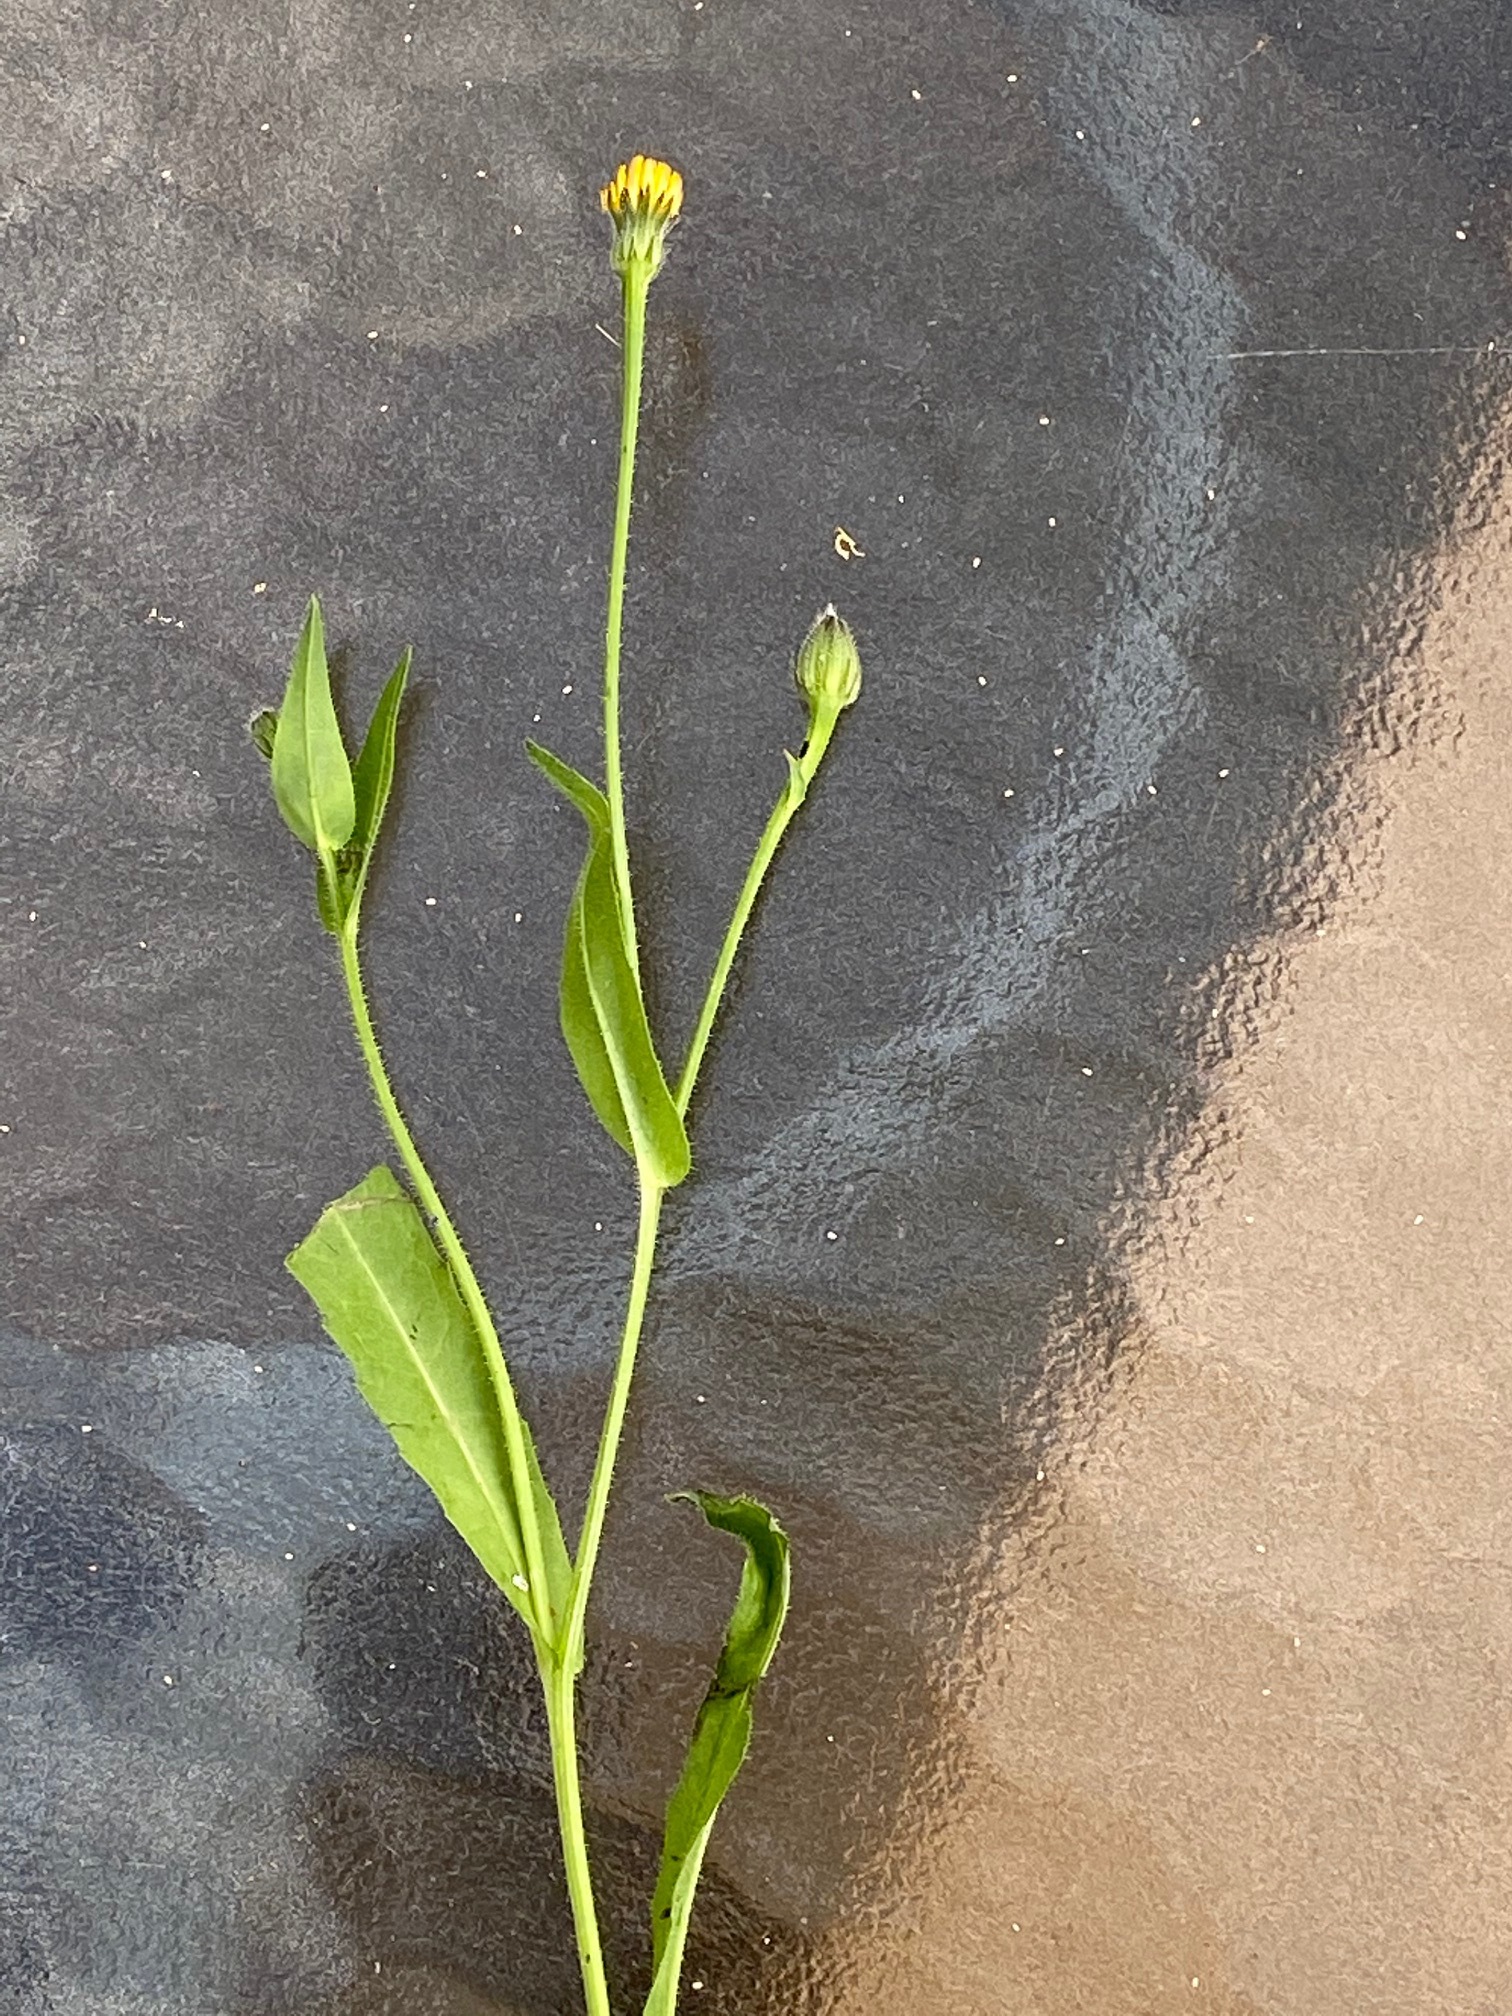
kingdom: Plantae
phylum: Tracheophyta
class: Magnoliopsida
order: Asterales
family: Asteraceae
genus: Hedypnois
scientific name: Hedypnois rhagadioloides
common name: Cretan weed
